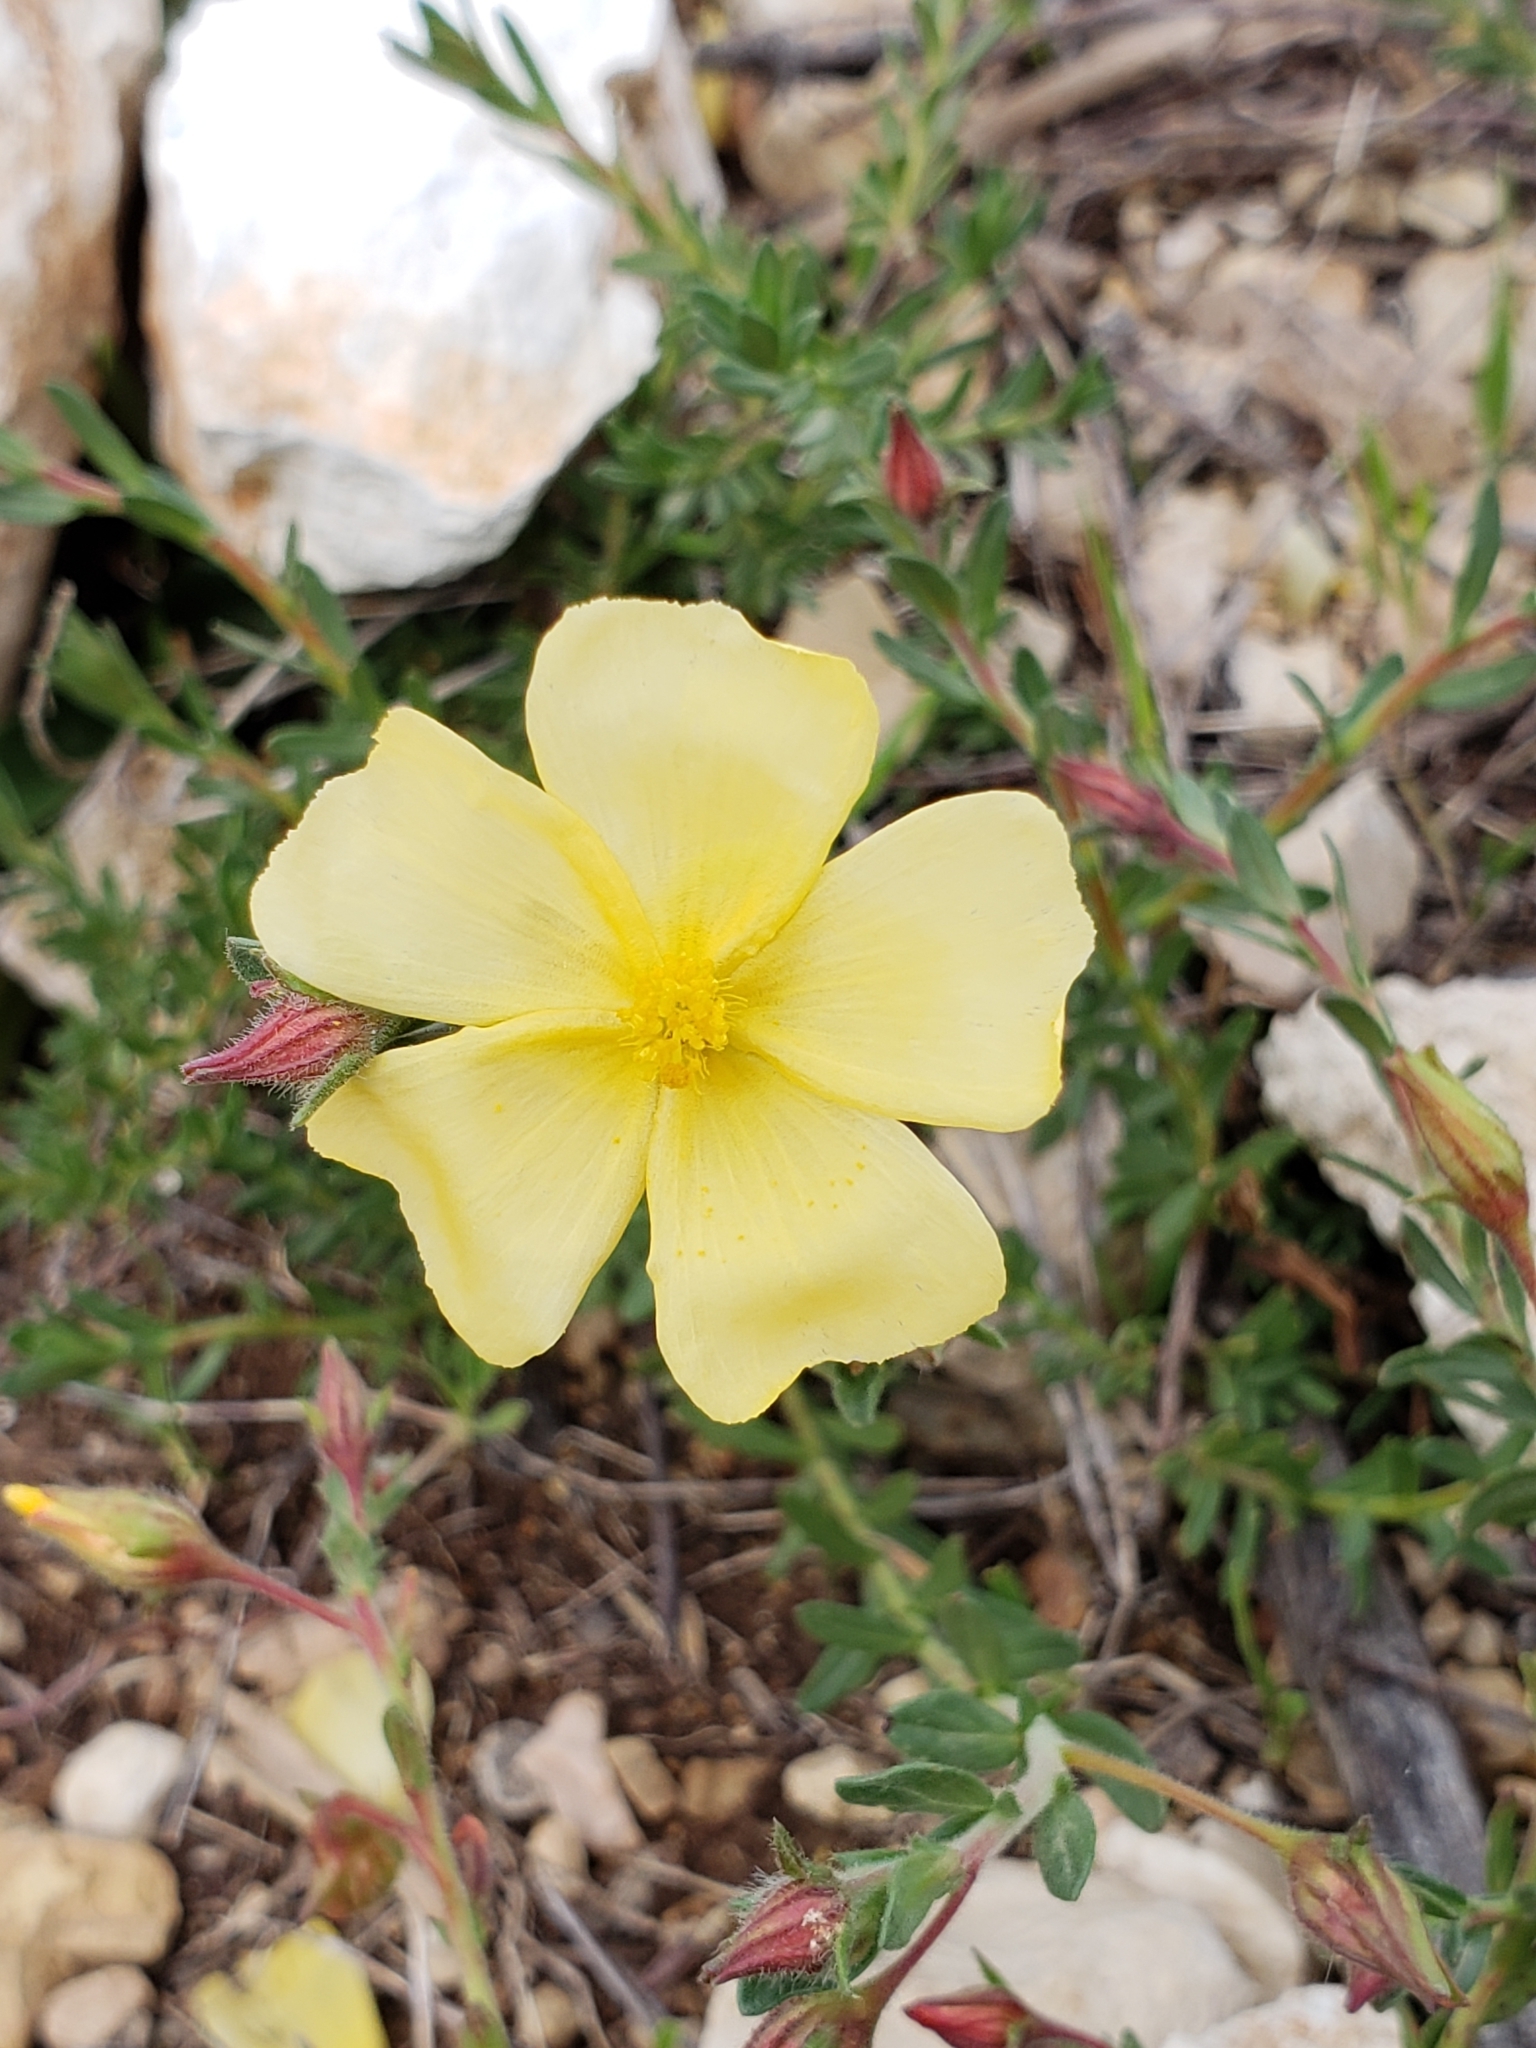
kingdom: Plantae
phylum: Tracheophyta
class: Magnoliopsida
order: Malvales
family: Cistaceae
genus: Fumana
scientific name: Fumana arabica
